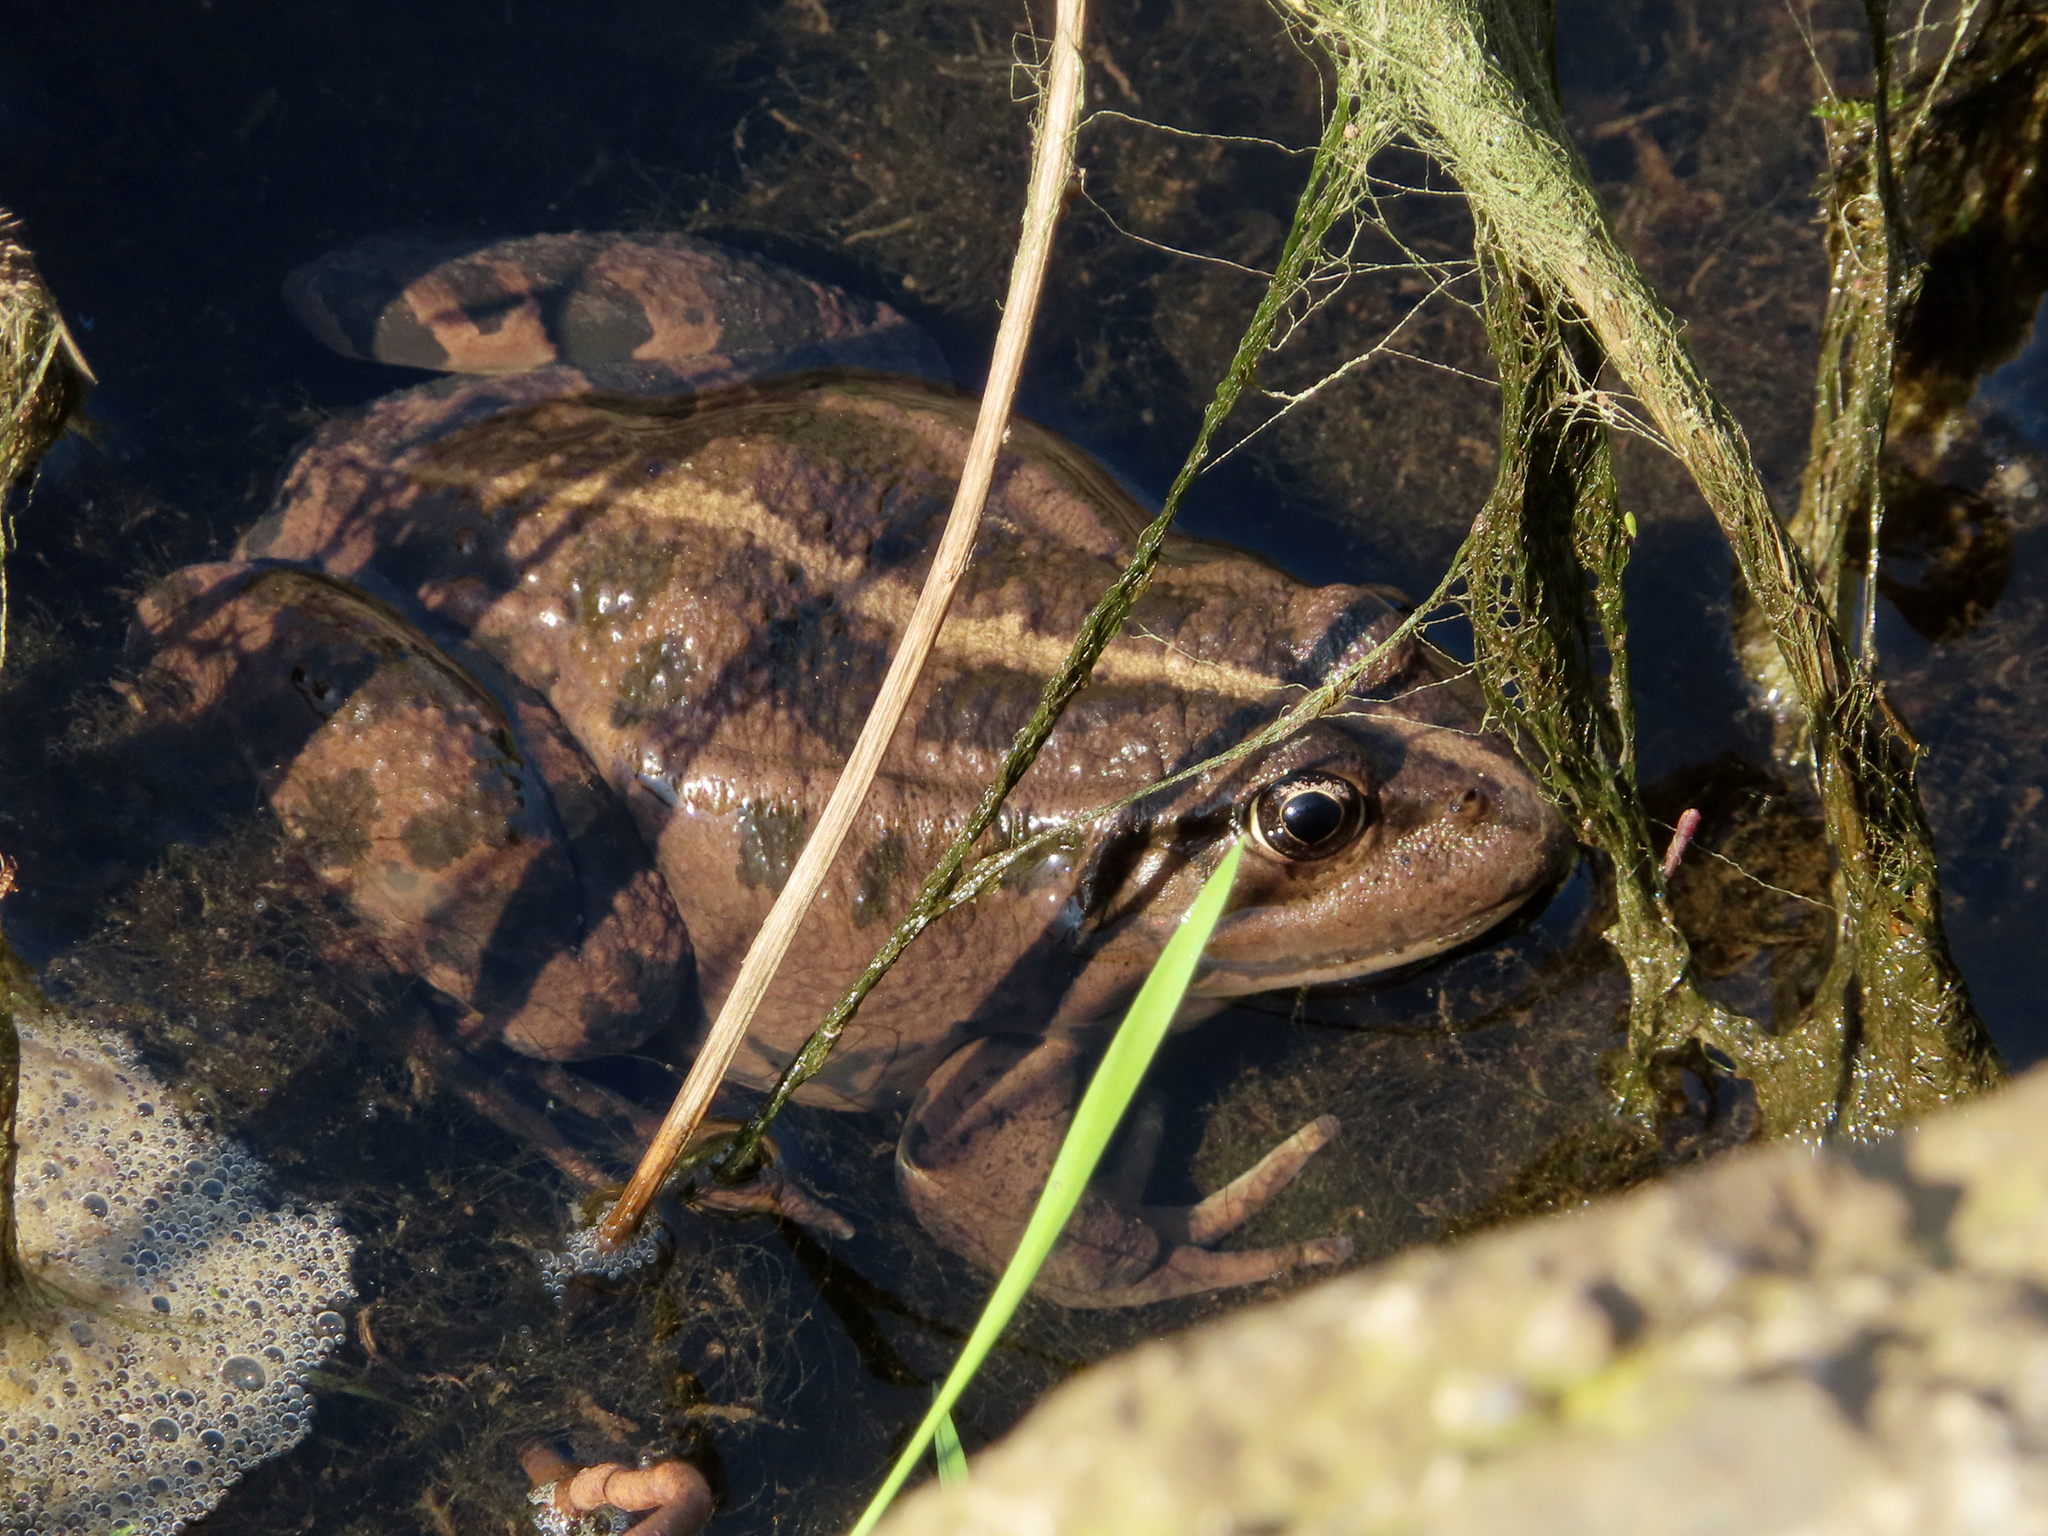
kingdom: Animalia
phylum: Chordata
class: Amphibia
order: Anura
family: Ranidae
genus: Pelophylax
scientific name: Pelophylax ridibundus
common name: Marsh frog
